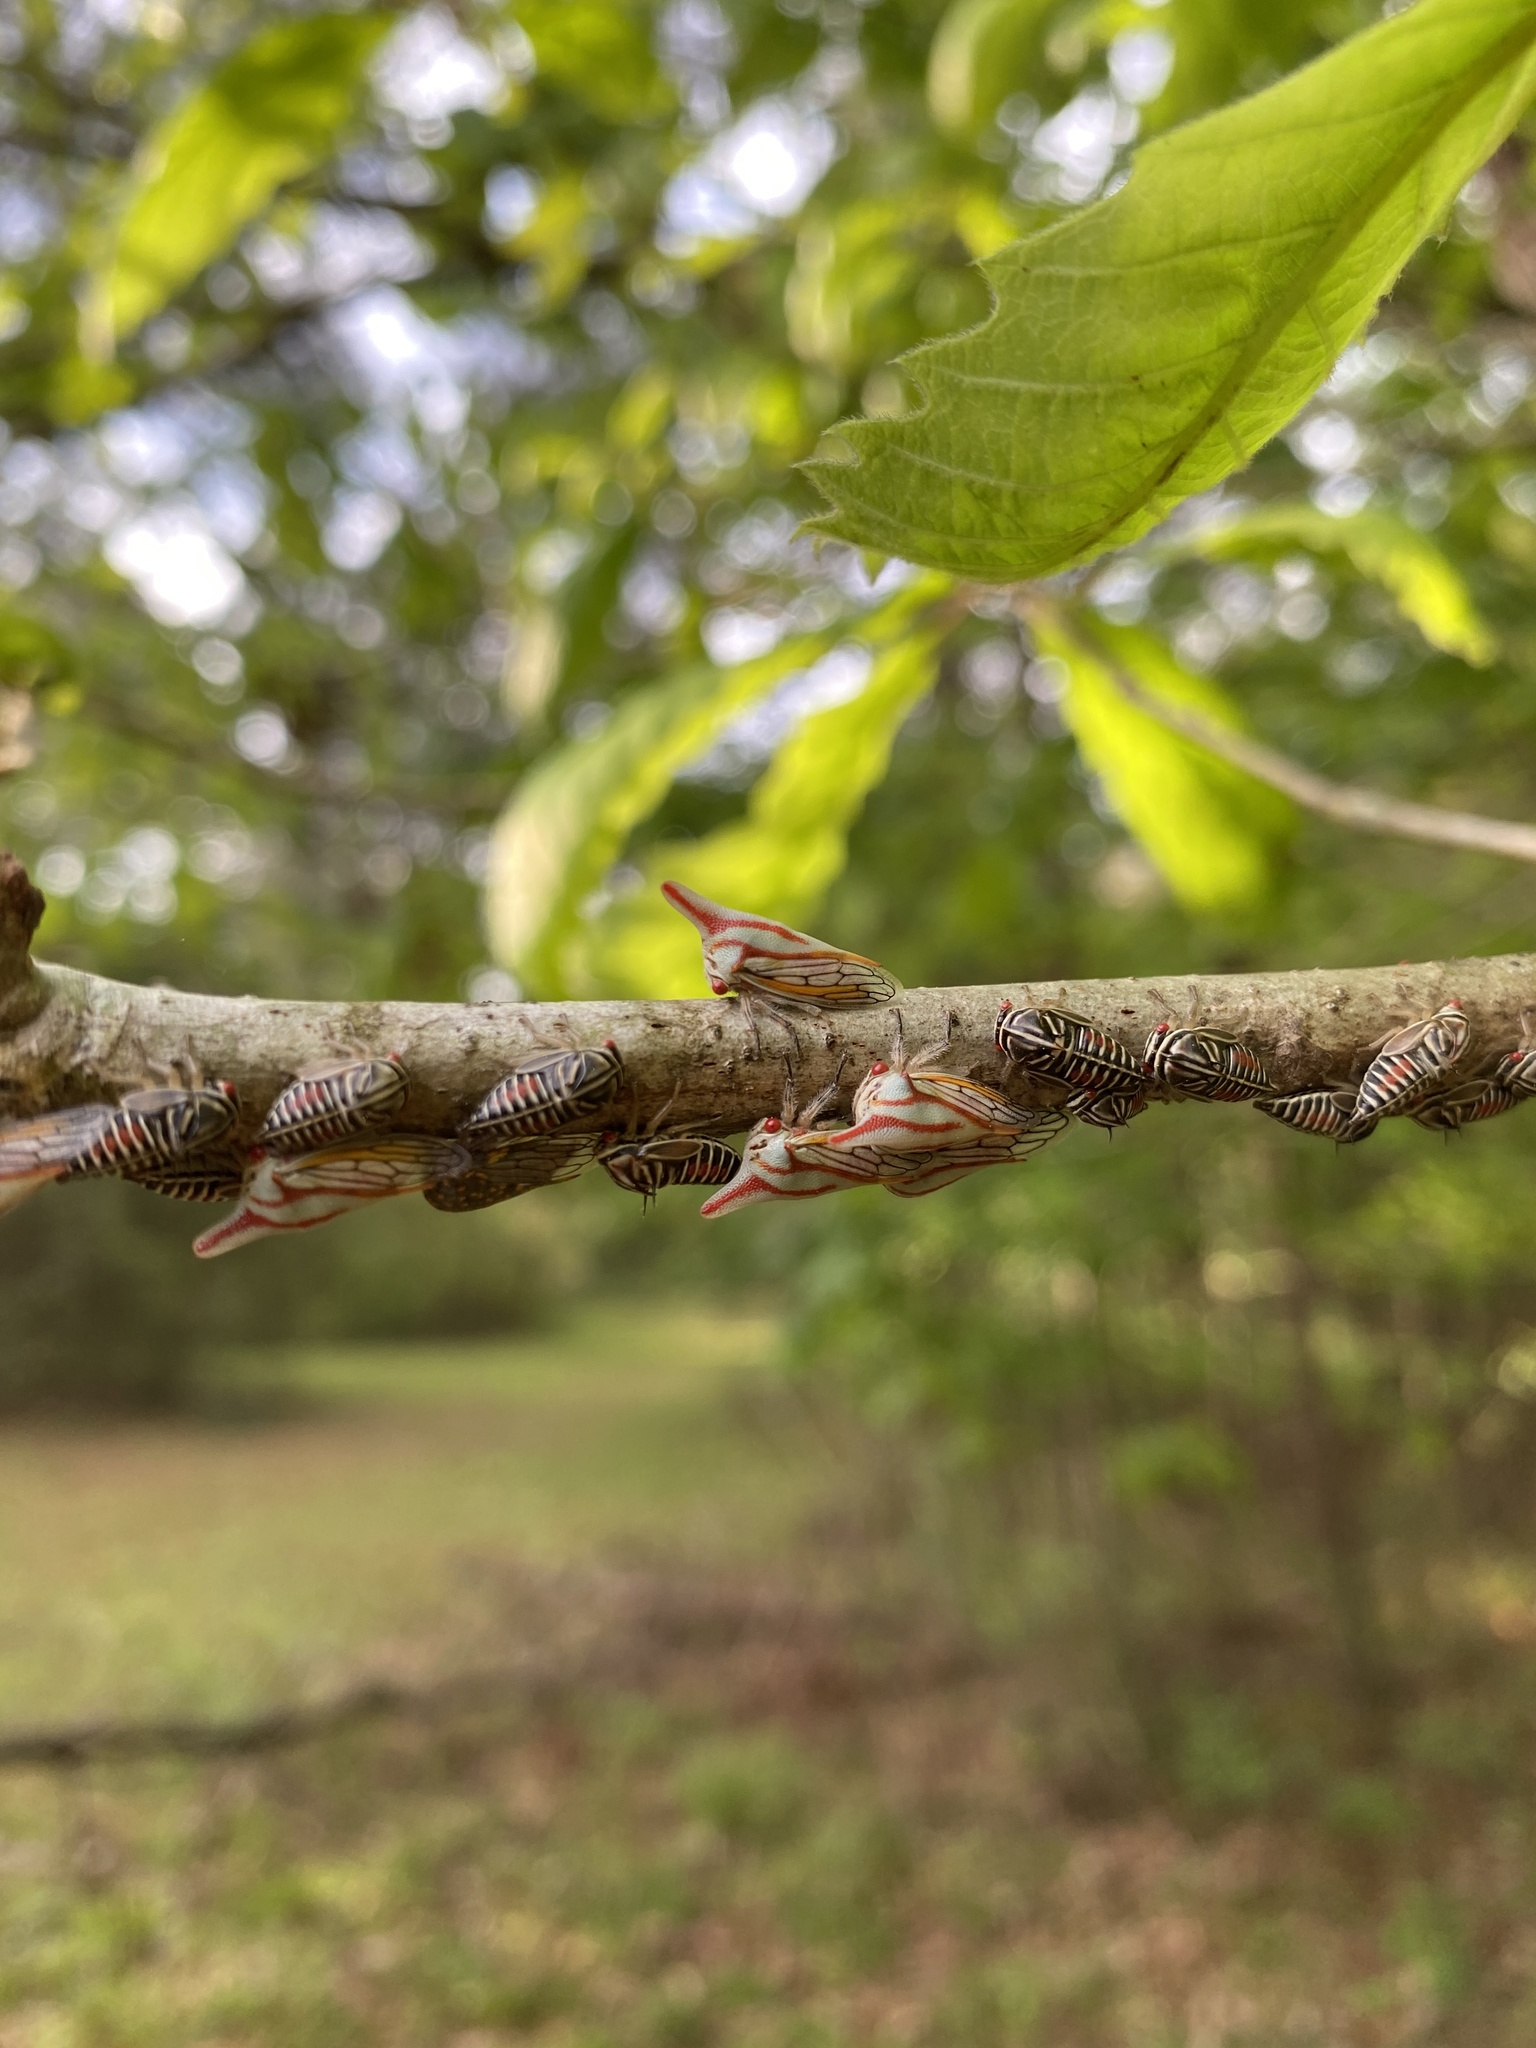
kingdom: Animalia
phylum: Arthropoda
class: Insecta
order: Hemiptera
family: Membracidae
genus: Platycotis
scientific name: Platycotis vittatus
